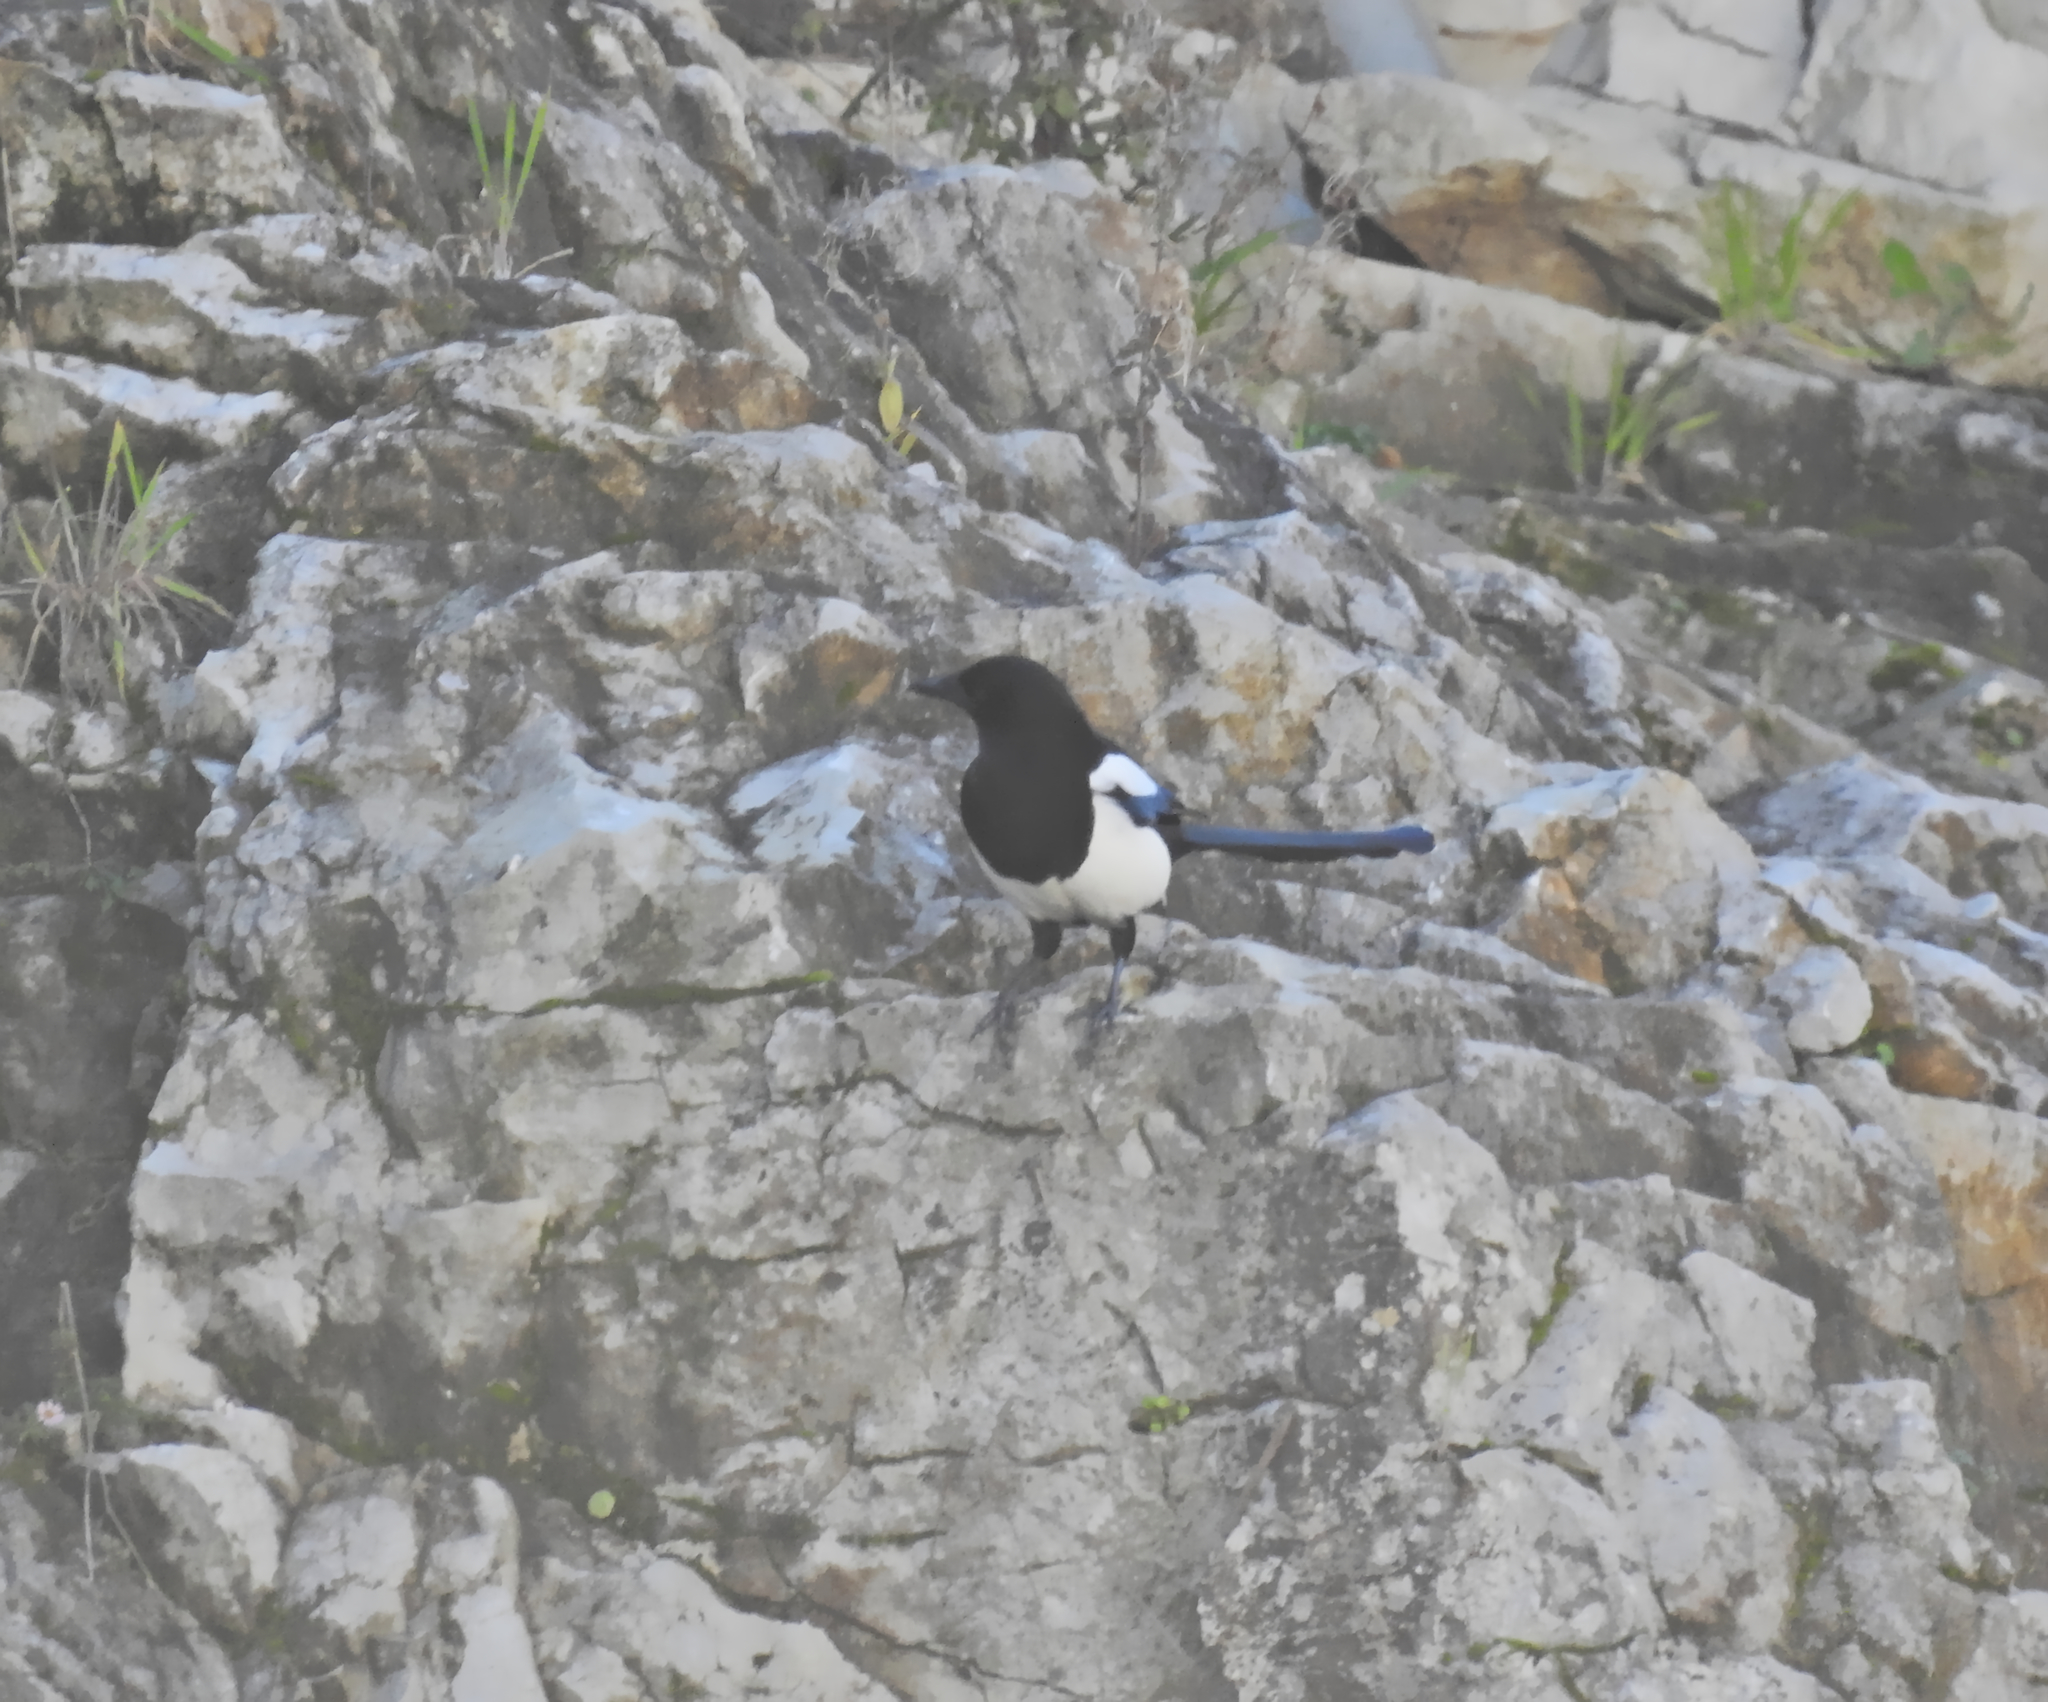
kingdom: Animalia
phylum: Chordata
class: Aves
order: Passeriformes
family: Corvidae
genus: Pica
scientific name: Pica pica
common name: Eurasian magpie
